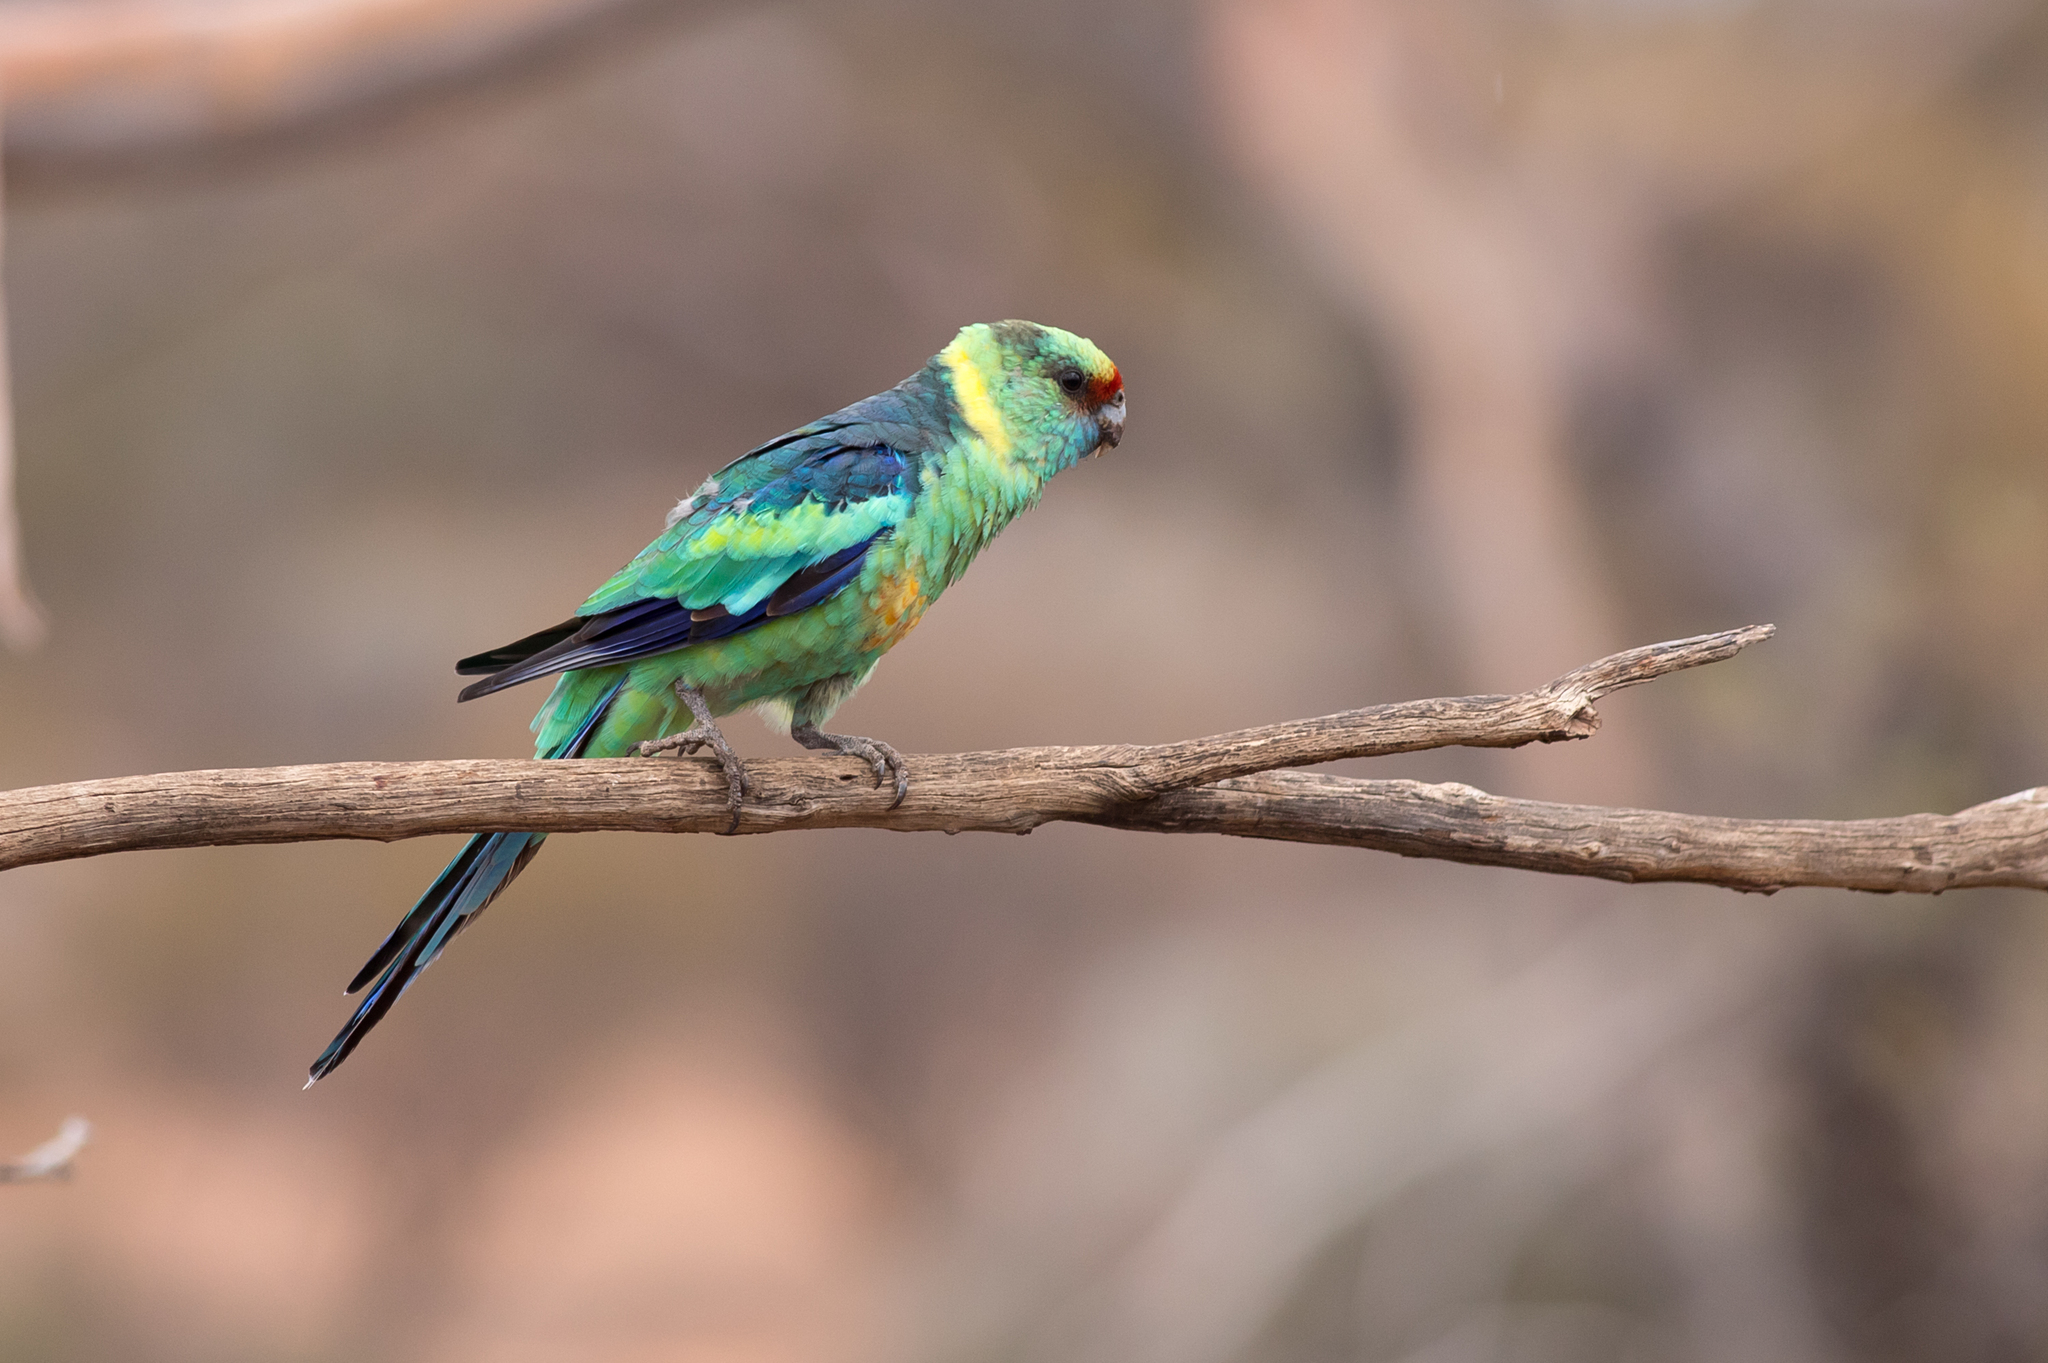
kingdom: Animalia
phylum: Chordata
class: Aves
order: Psittaciformes
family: Psittacidae
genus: Barnardius
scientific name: Barnardius zonarius
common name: Australian ringneck
